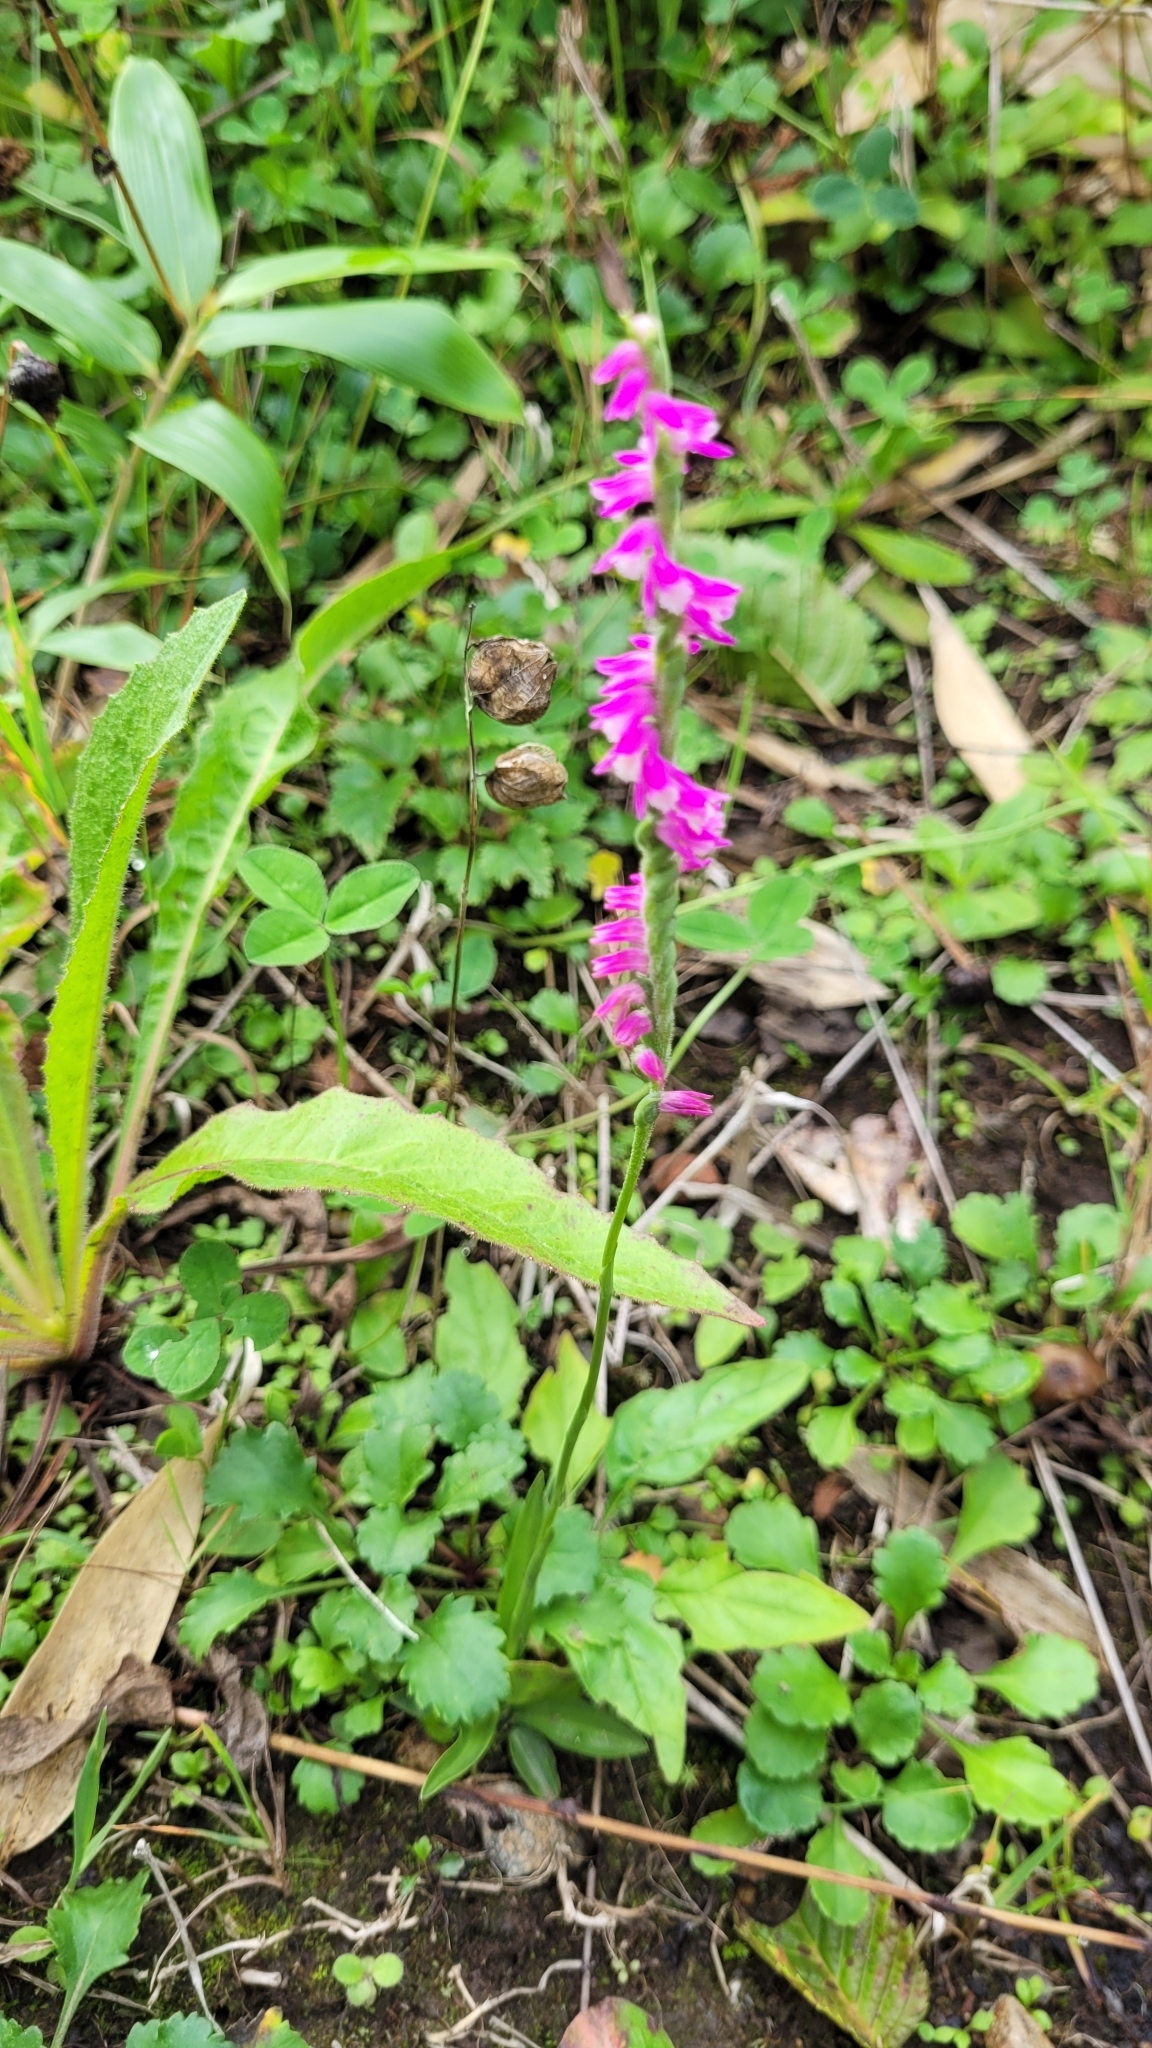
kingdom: Plantae
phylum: Tracheophyta
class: Liliopsida
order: Asparagales
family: Orchidaceae
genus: Spiranthes
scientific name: Spiranthes australis
